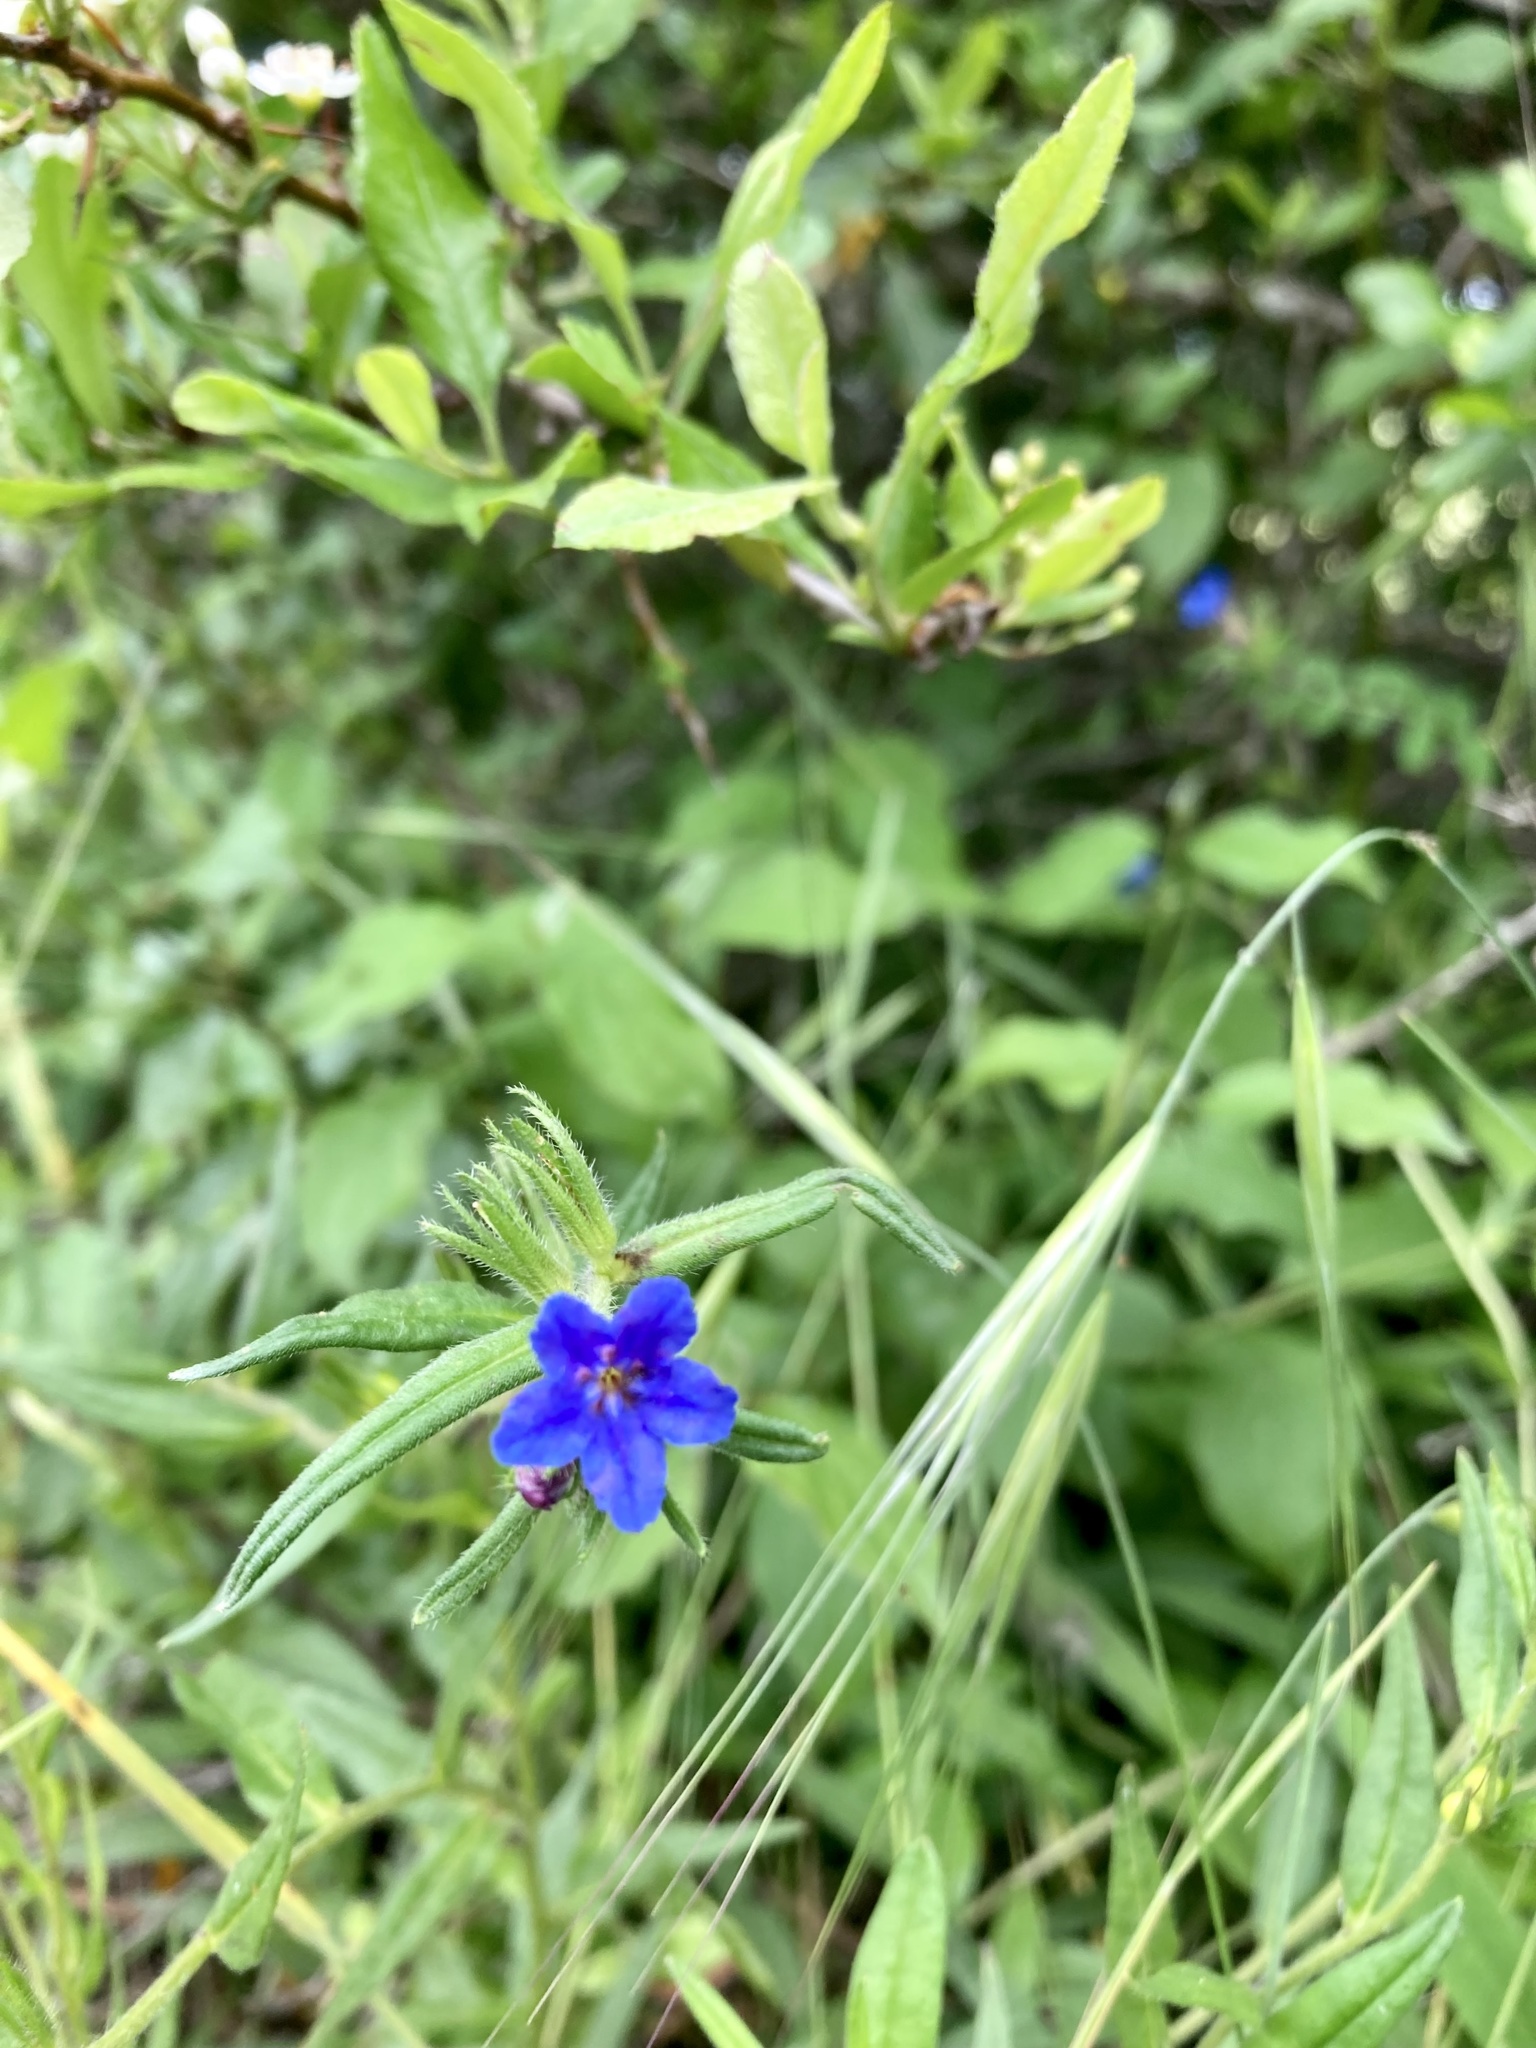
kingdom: Plantae
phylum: Tracheophyta
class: Magnoliopsida
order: Boraginales
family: Boraginaceae
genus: Aegonychon
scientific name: Aegonychon purpurocaeruleum
